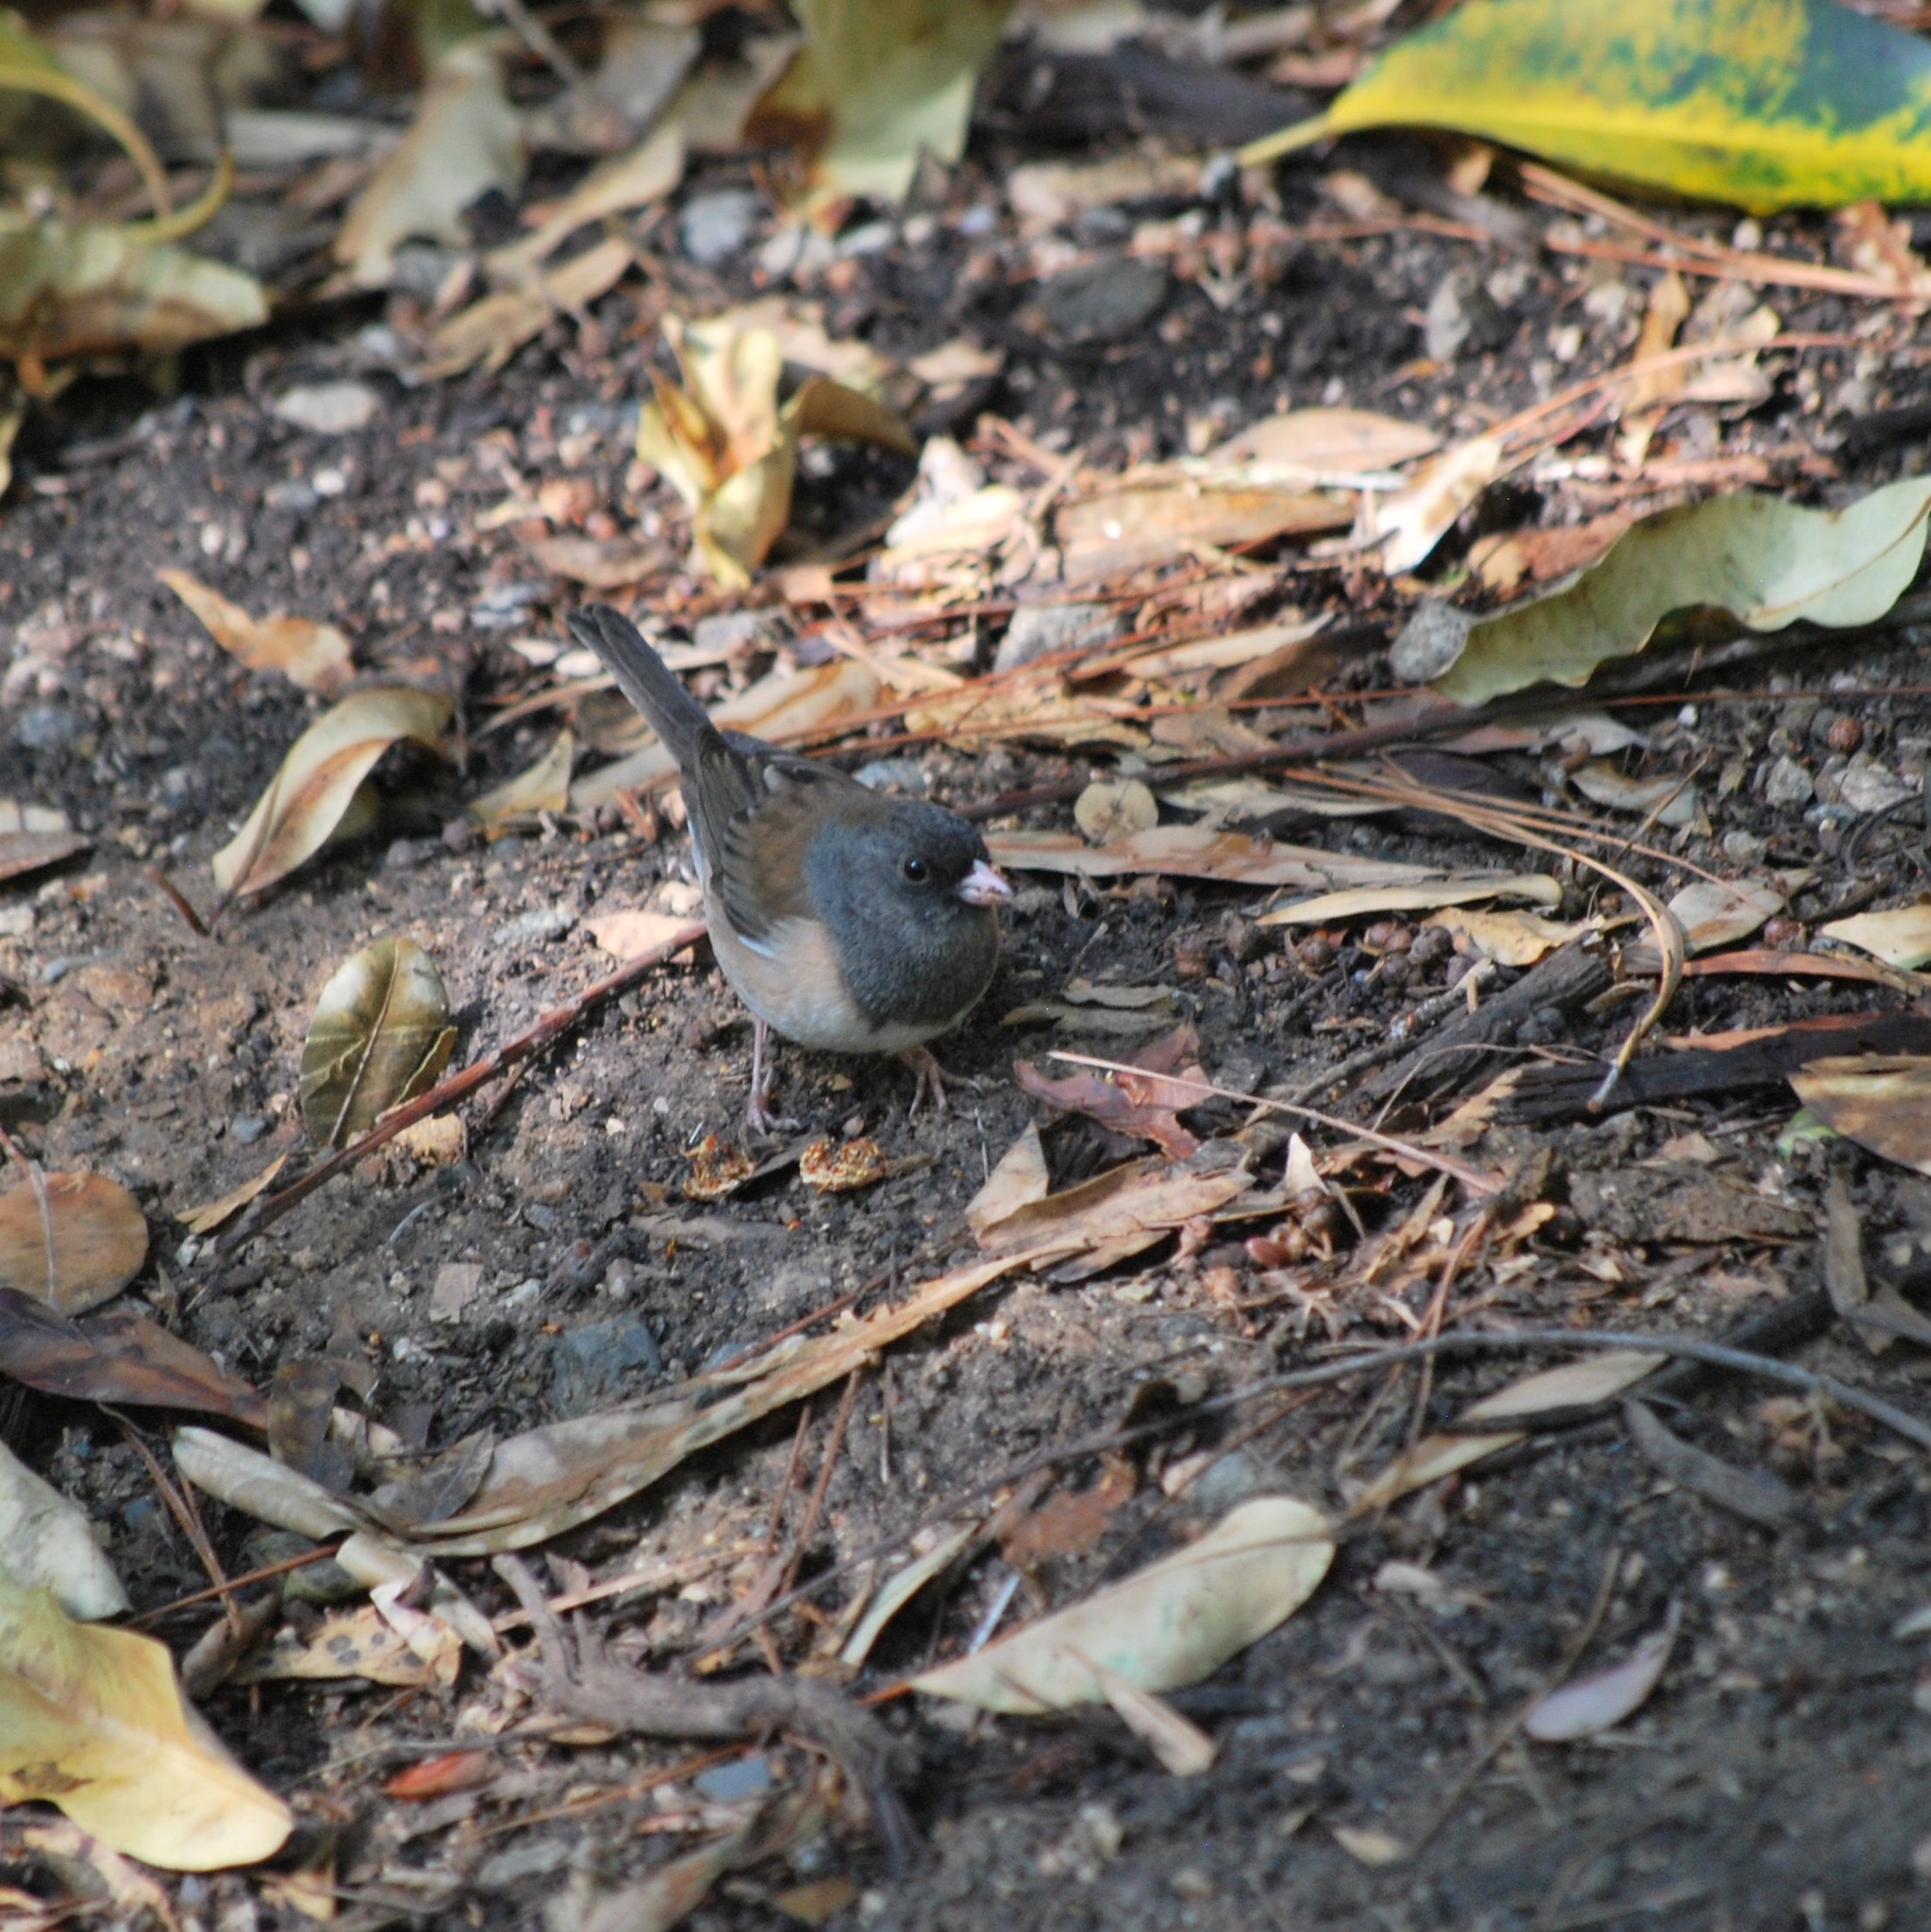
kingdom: Animalia
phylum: Chordata
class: Aves
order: Passeriformes
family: Passerellidae
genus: Junco
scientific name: Junco hyemalis
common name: Dark-eyed junco
